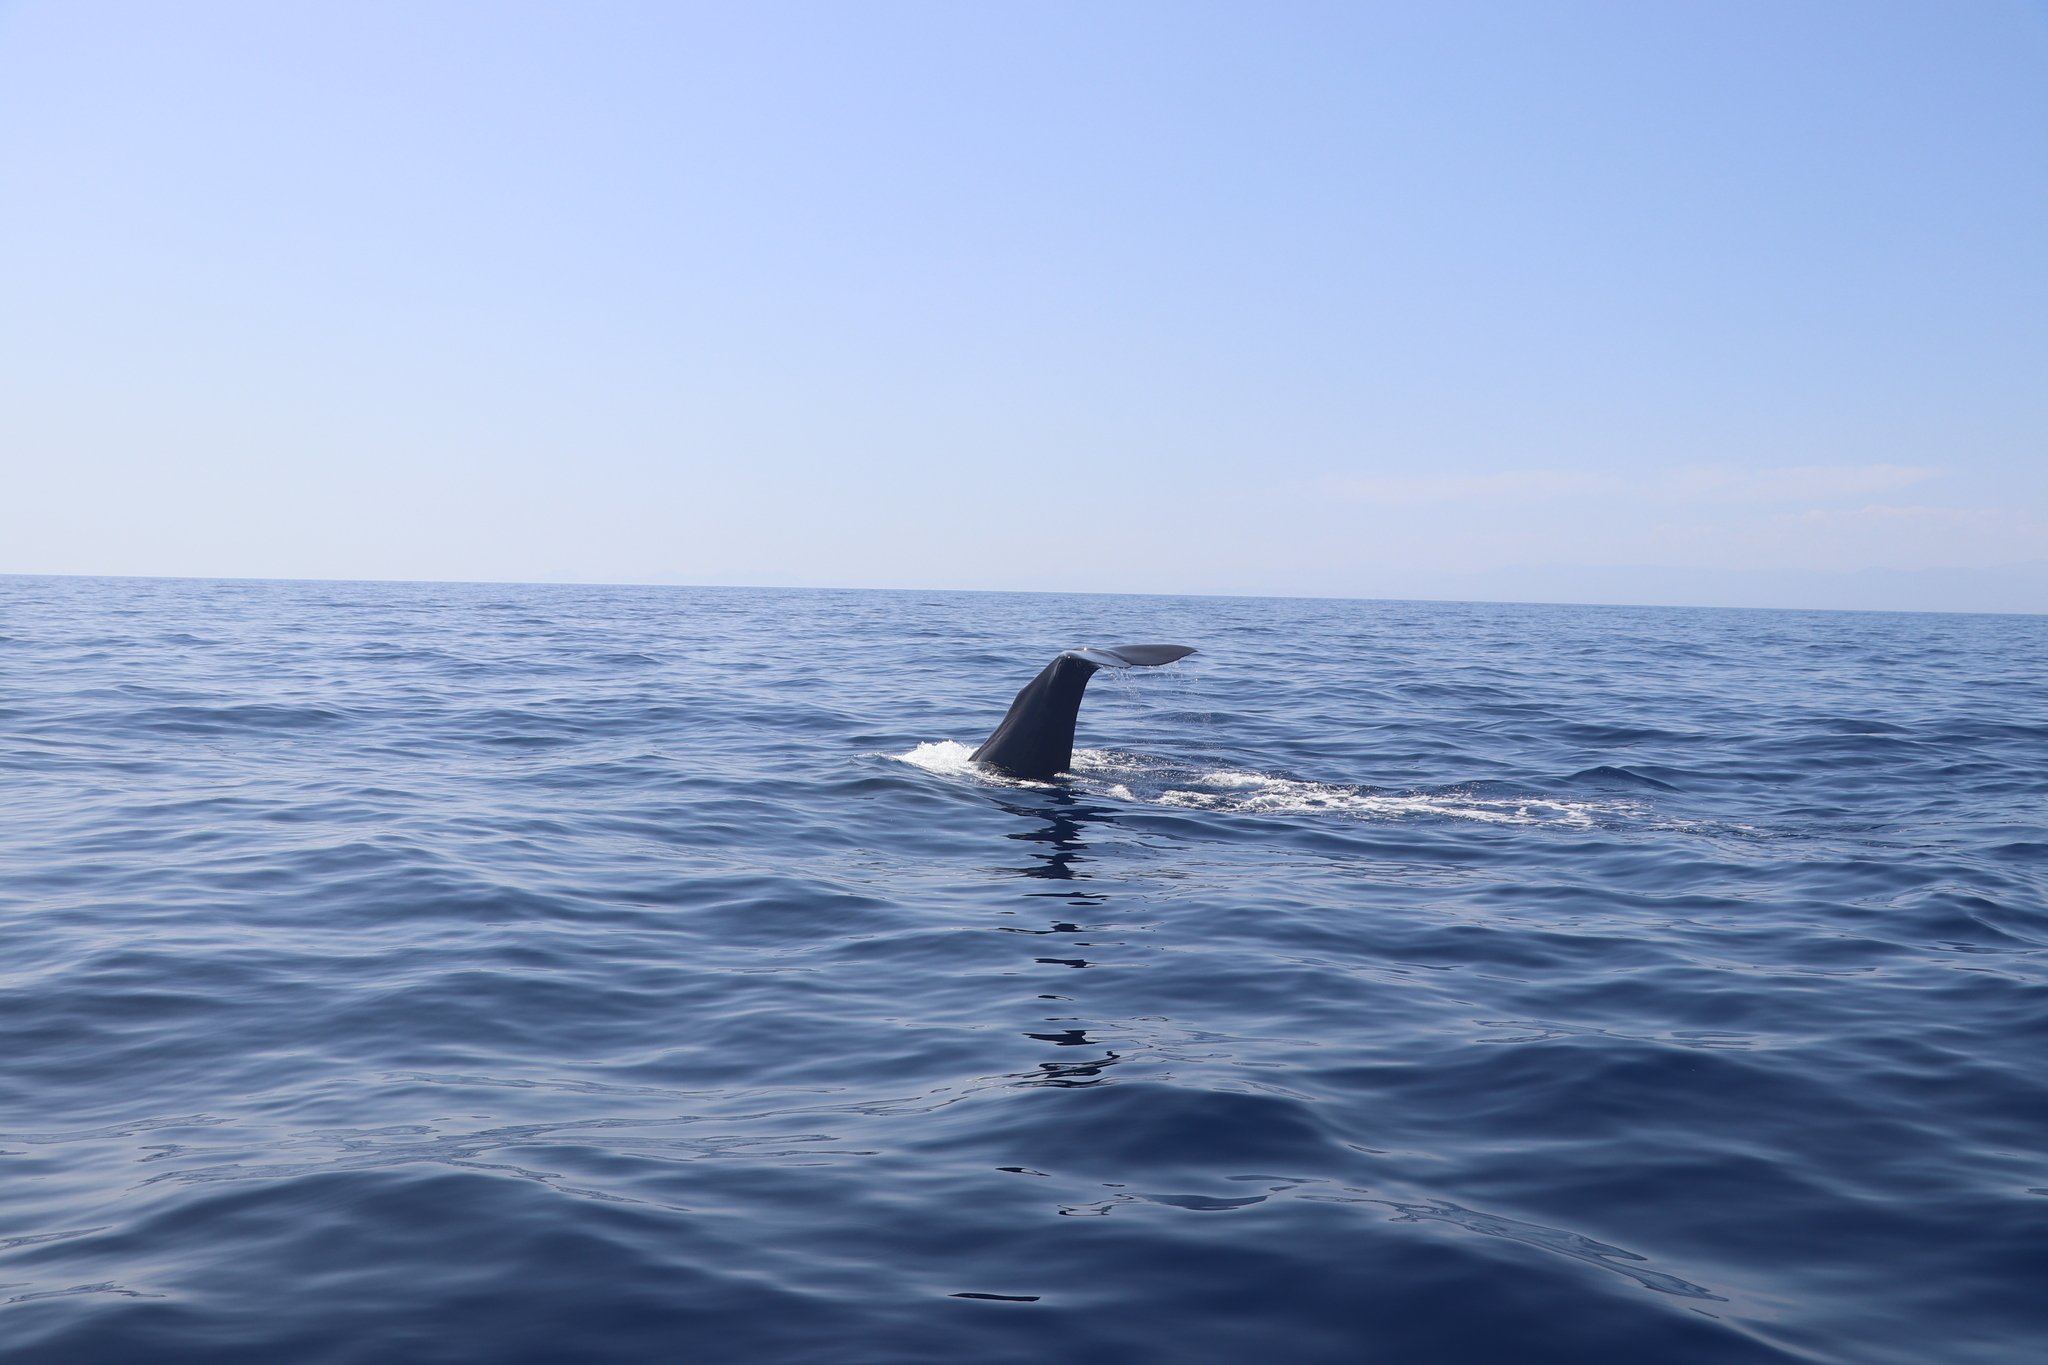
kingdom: Animalia
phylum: Chordata
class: Mammalia
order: Cetacea
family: Physeteridae
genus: Physeter
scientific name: Physeter macrocephalus
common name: Sperm whale
